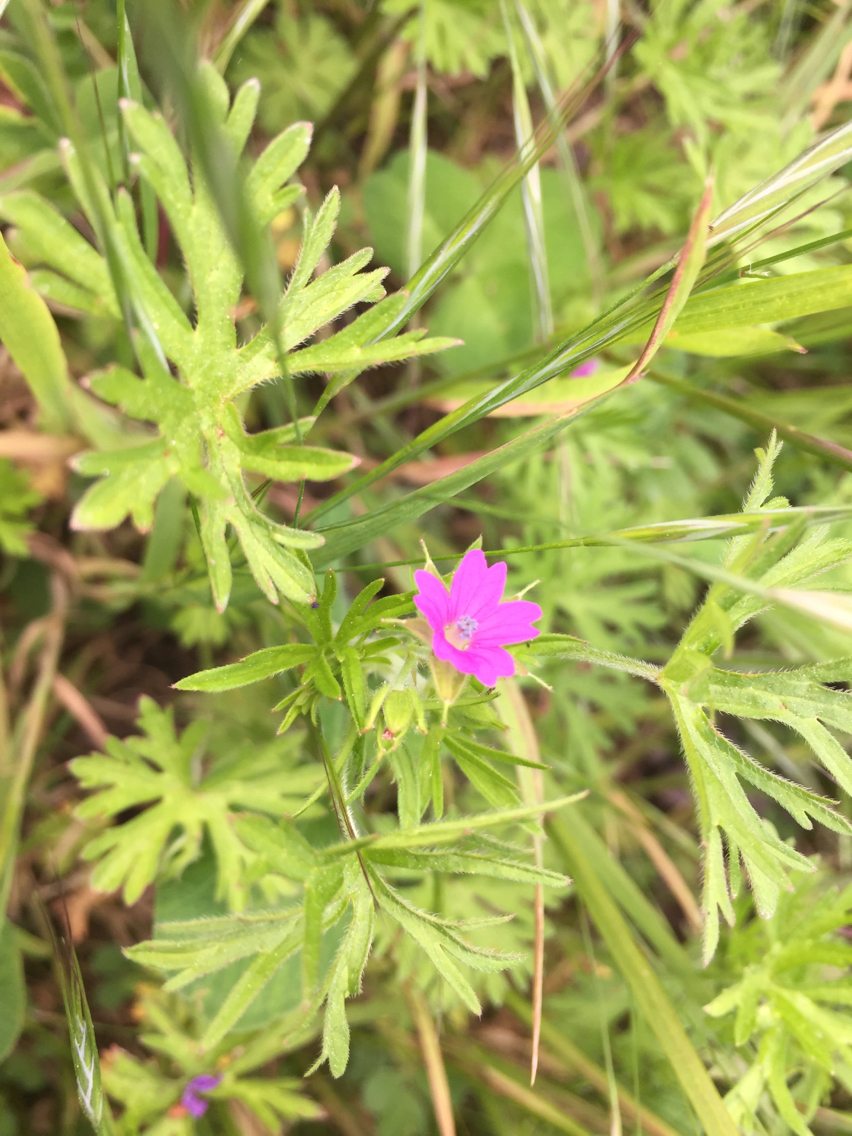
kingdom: Plantae
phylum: Tracheophyta
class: Magnoliopsida
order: Geraniales
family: Geraniaceae
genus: Geranium
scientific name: Geranium dissectum
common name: Cut-leaved crane's-bill
